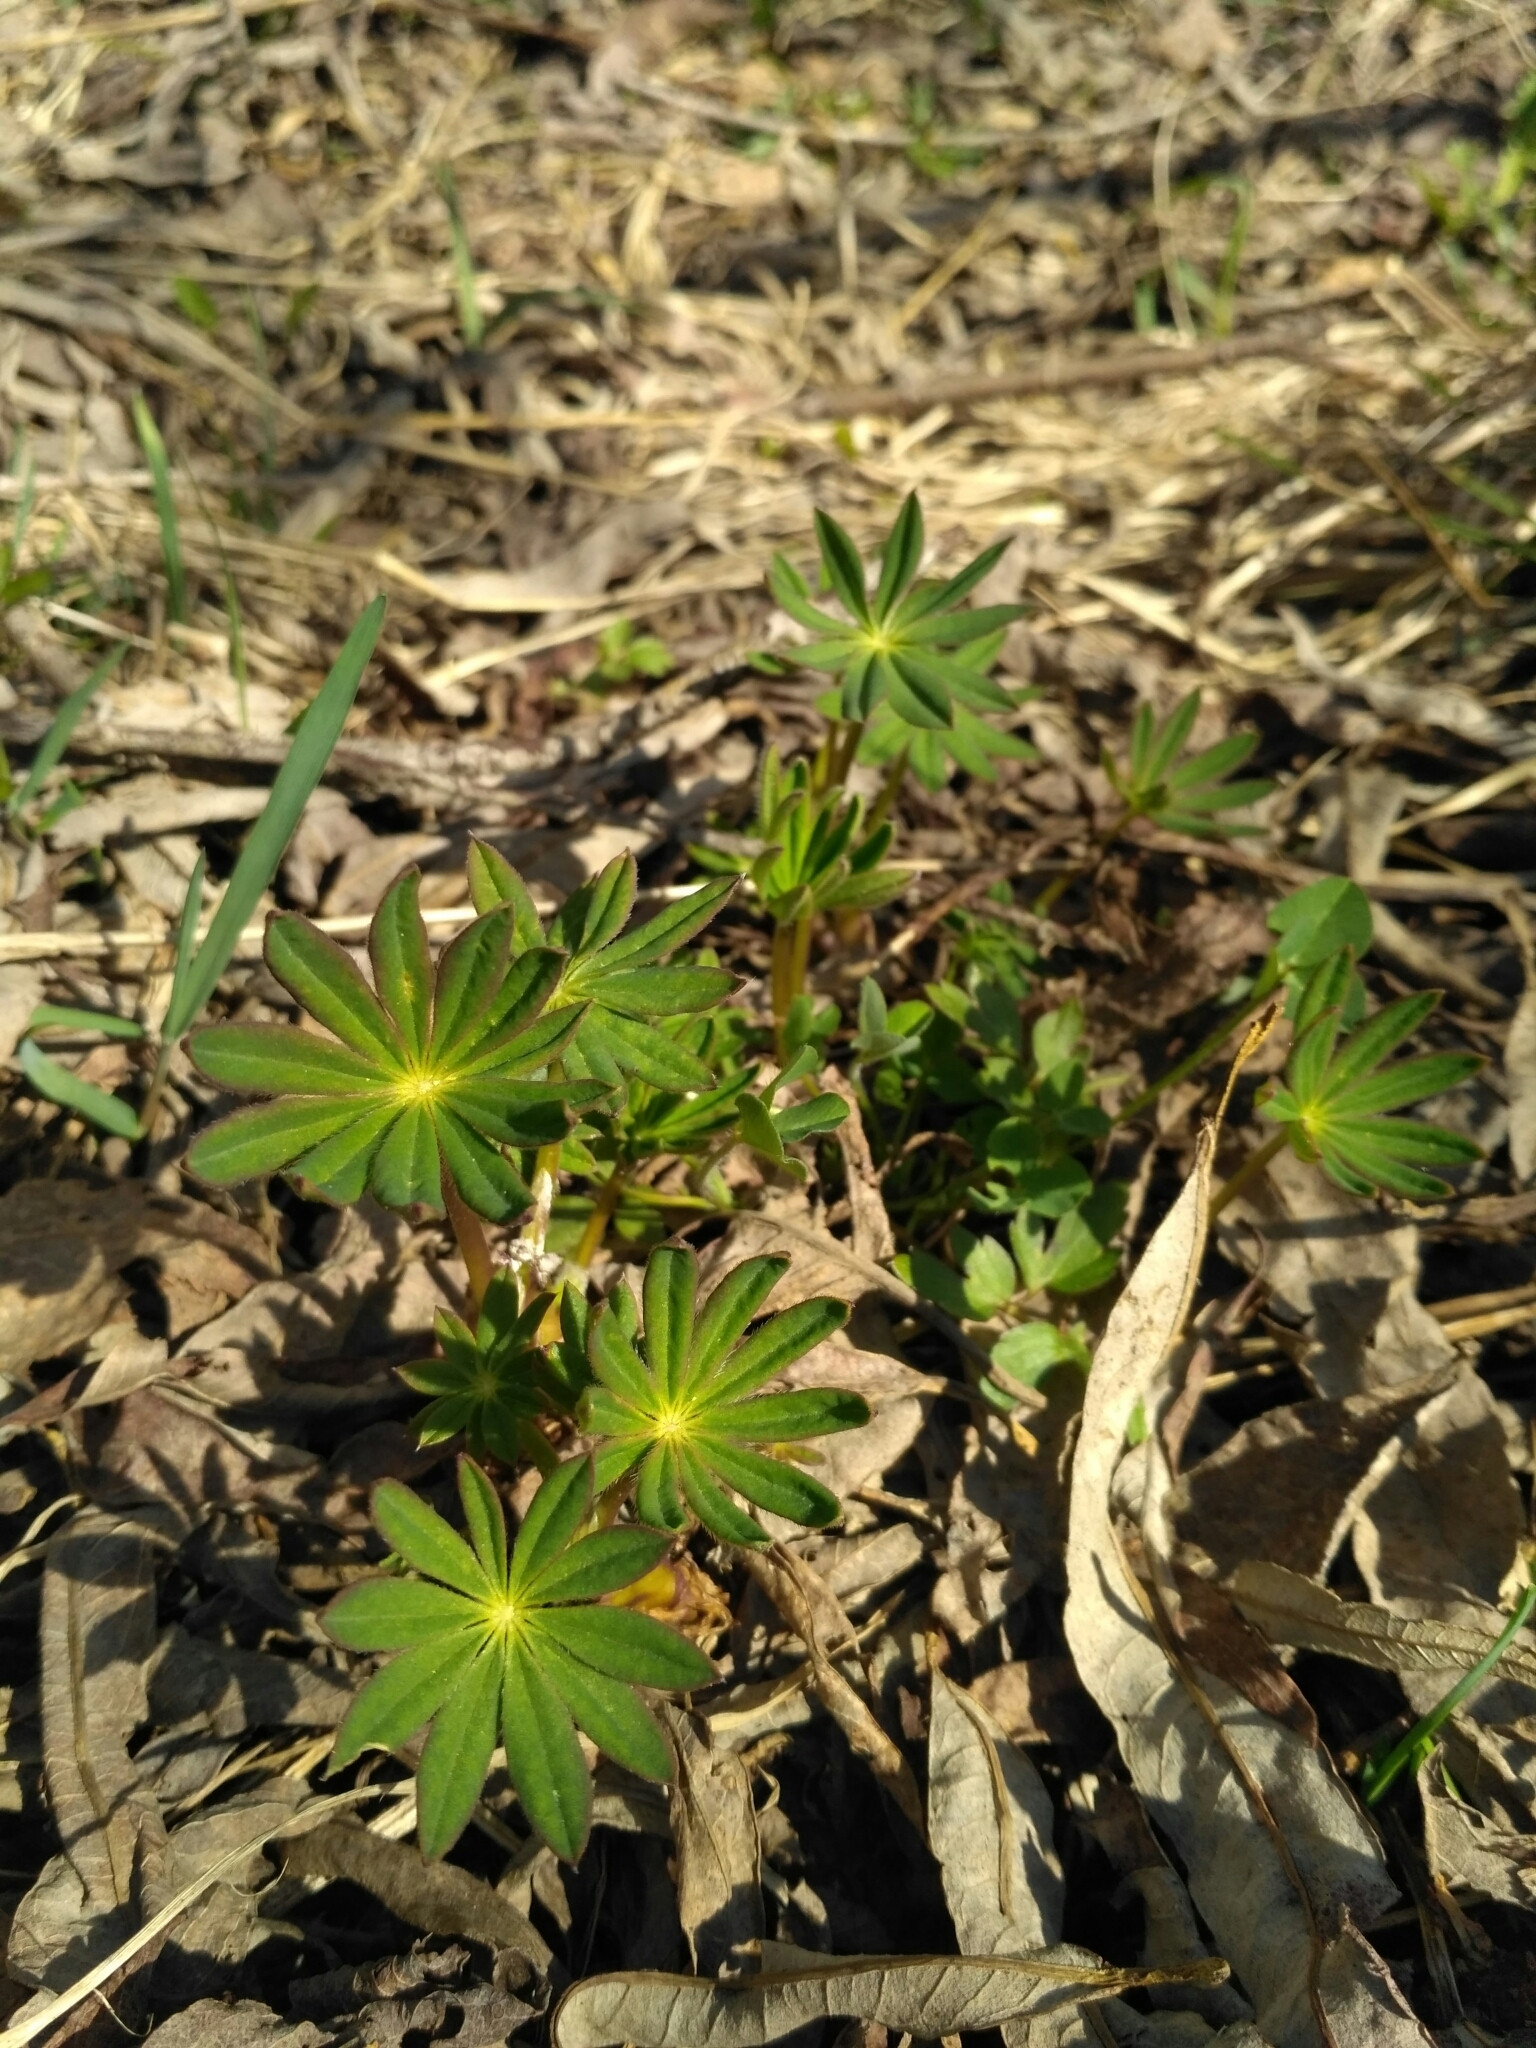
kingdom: Plantae
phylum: Tracheophyta
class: Magnoliopsida
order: Fabales
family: Fabaceae
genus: Lupinus
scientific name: Lupinus polyphyllus
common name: Garden lupin
